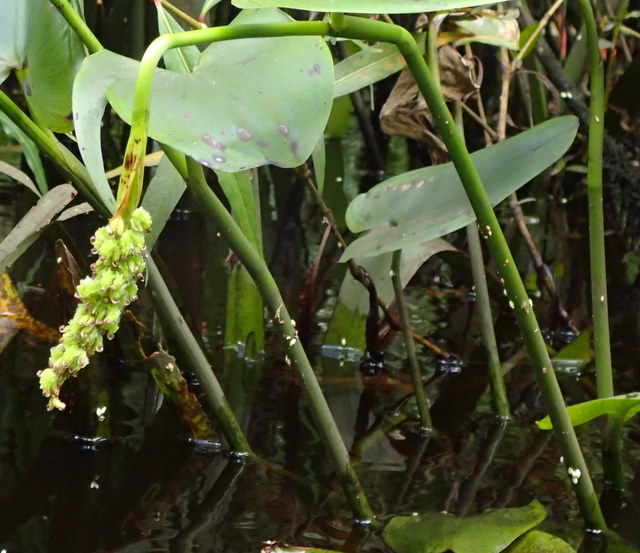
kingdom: Plantae
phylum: Tracheophyta
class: Liliopsida
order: Commelinales
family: Pontederiaceae
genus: Pontederia
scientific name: Pontederia cordata
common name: Pickerelweed
